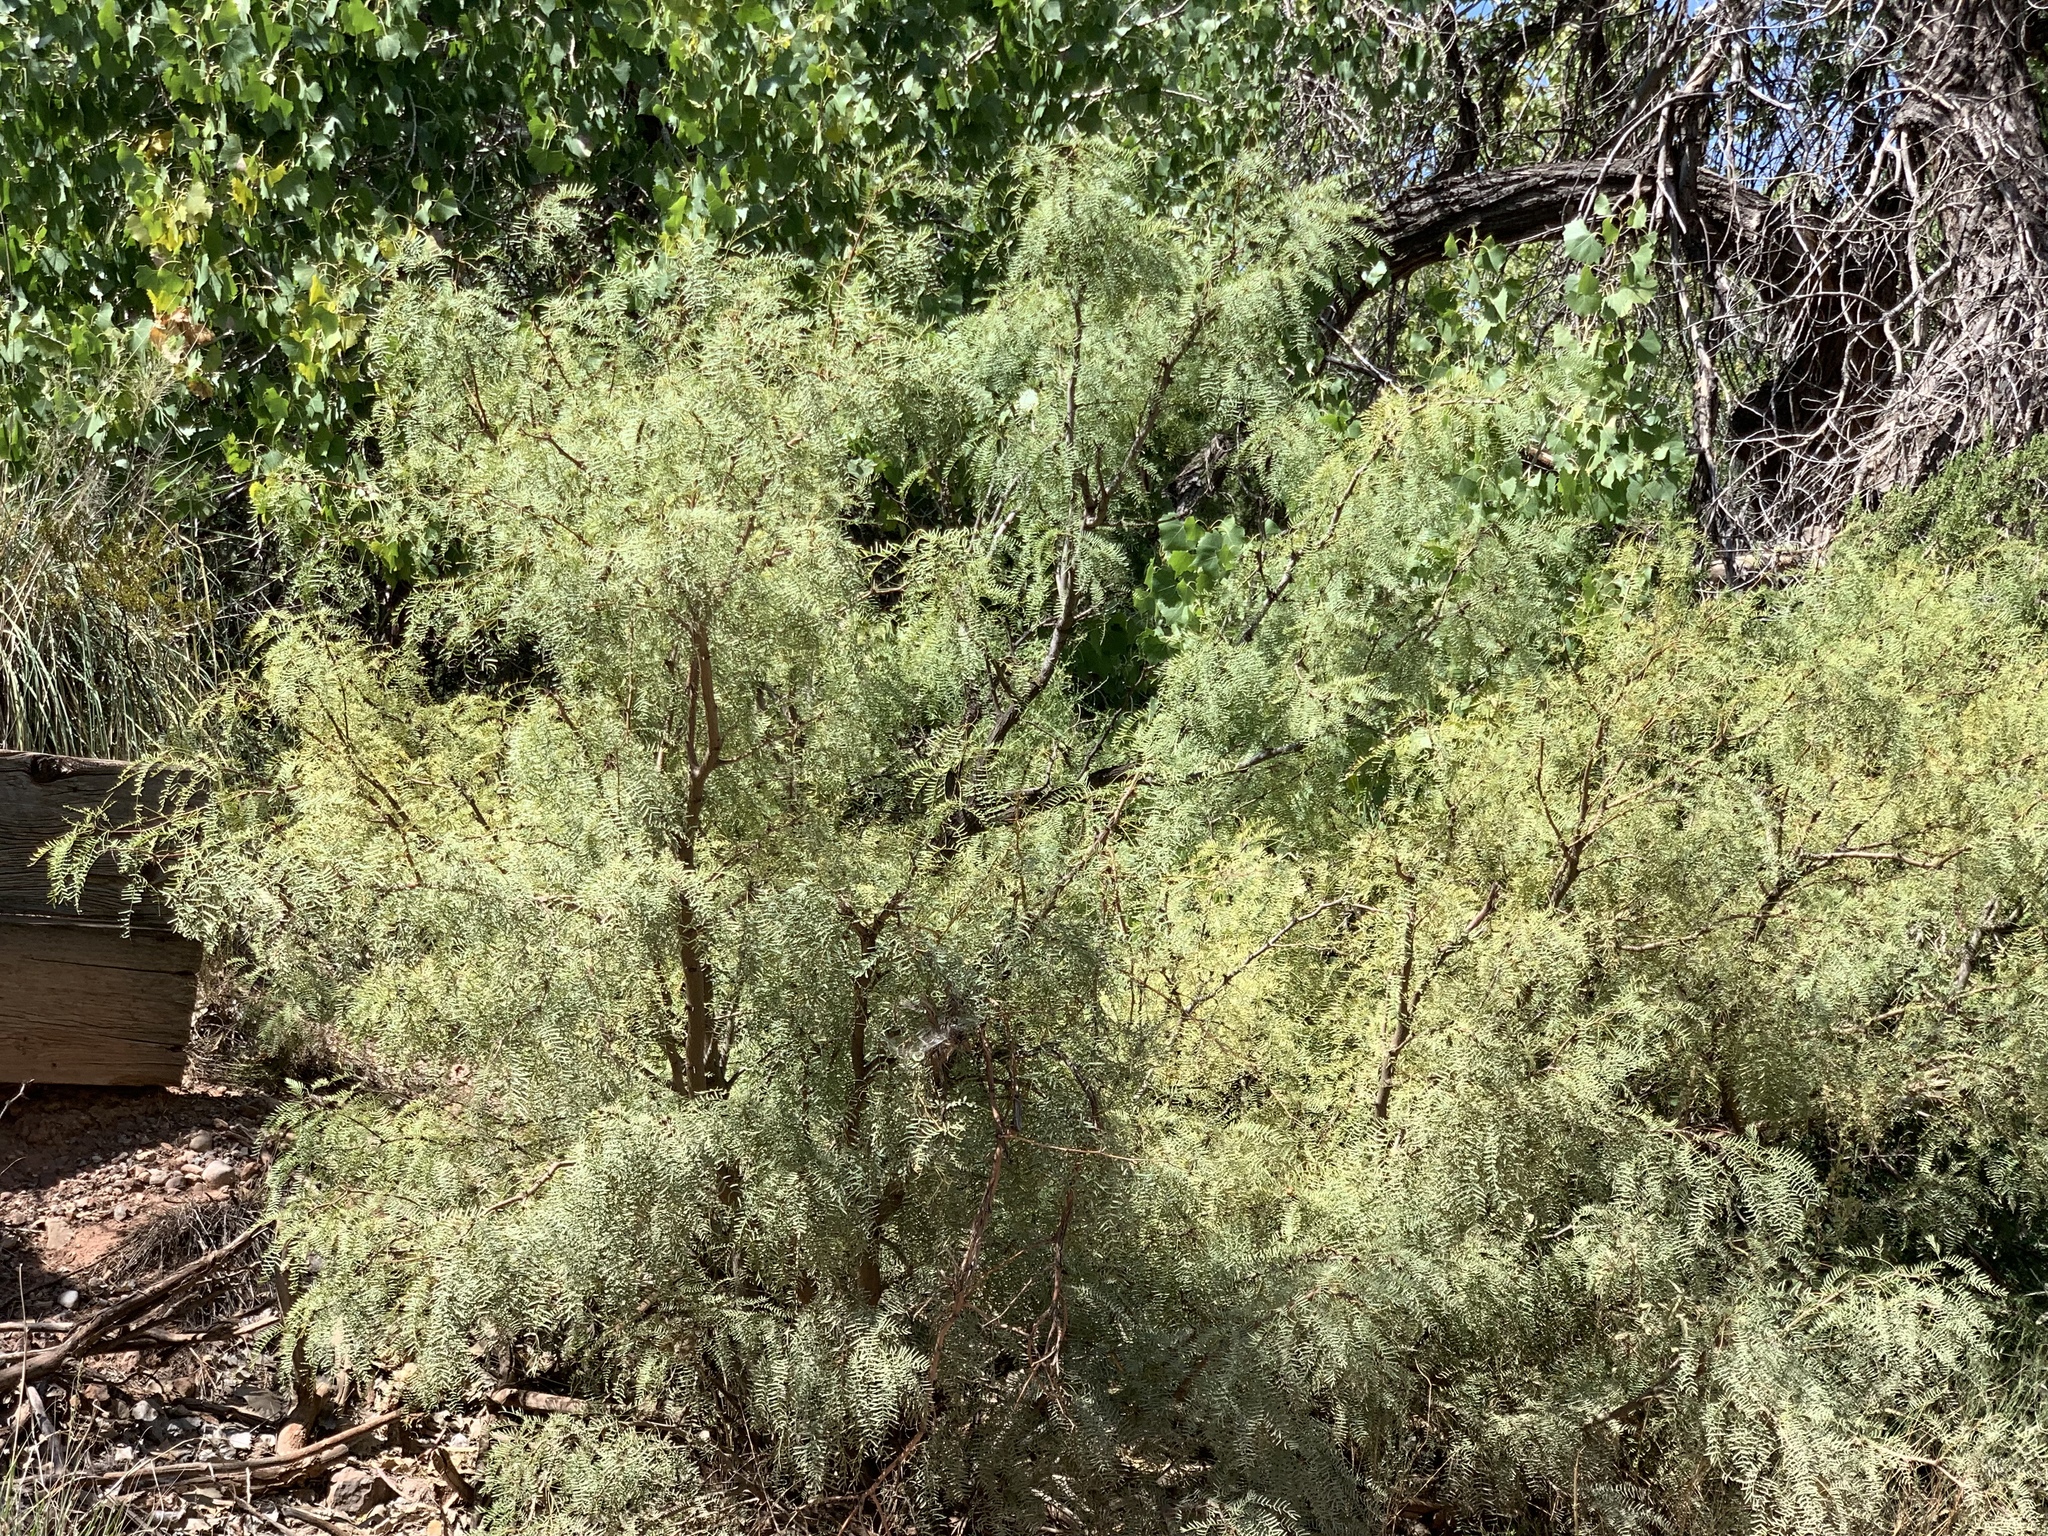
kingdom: Plantae
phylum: Tracheophyta
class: Magnoliopsida
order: Fabales
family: Fabaceae
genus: Prosopis
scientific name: Prosopis glandulosa
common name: Honey mesquite
